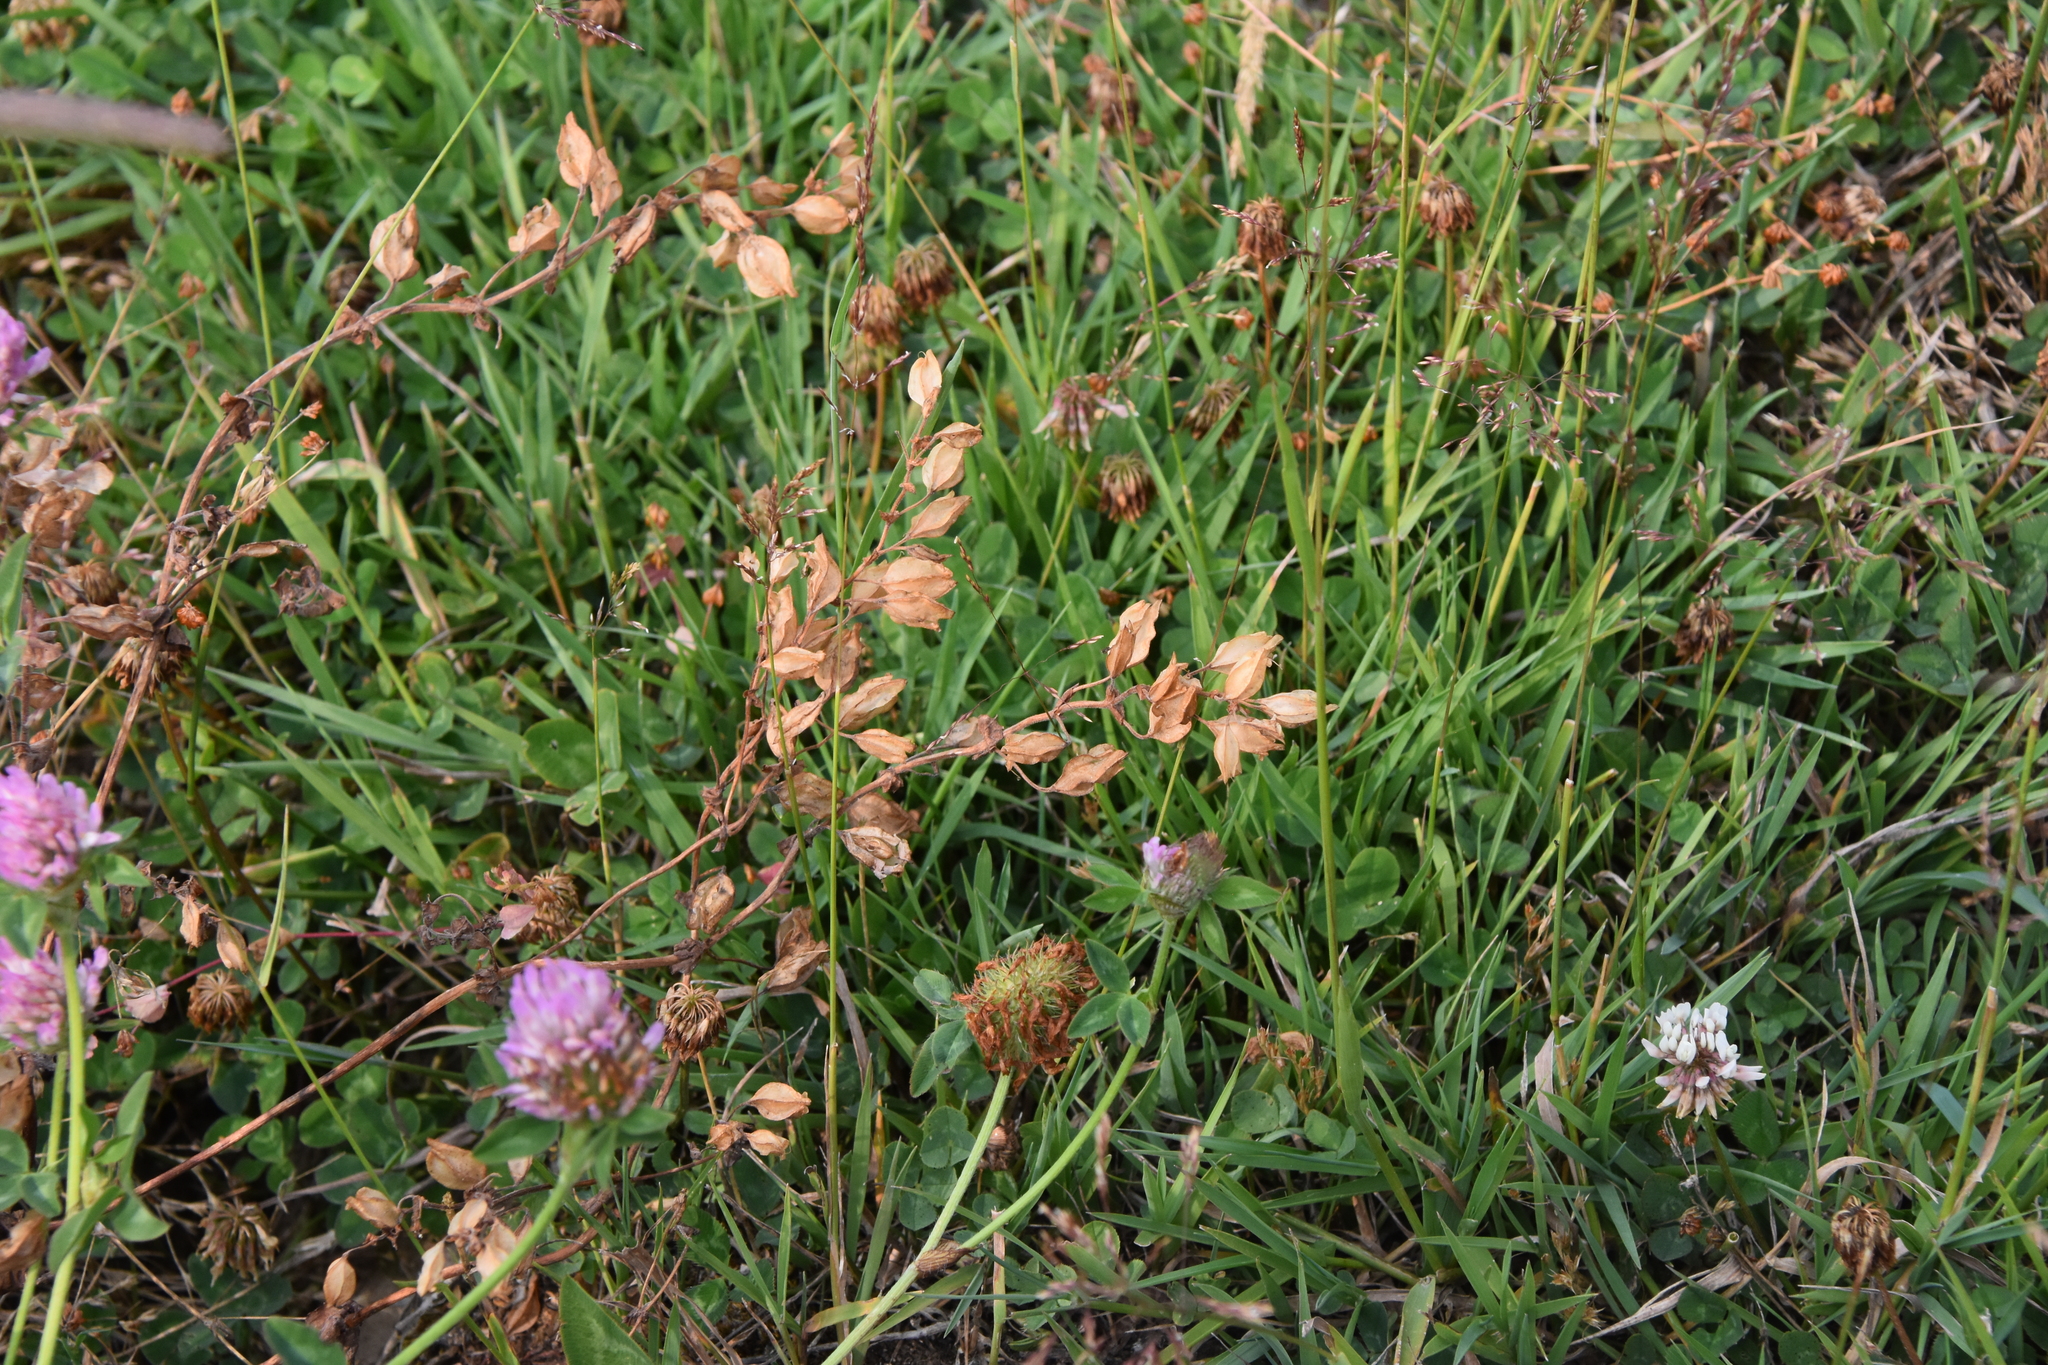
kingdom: Plantae
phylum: Tracheophyta
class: Magnoliopsida
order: Fabales
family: Fabaceae
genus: Trifolium
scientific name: Trifolium repens
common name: White clover
